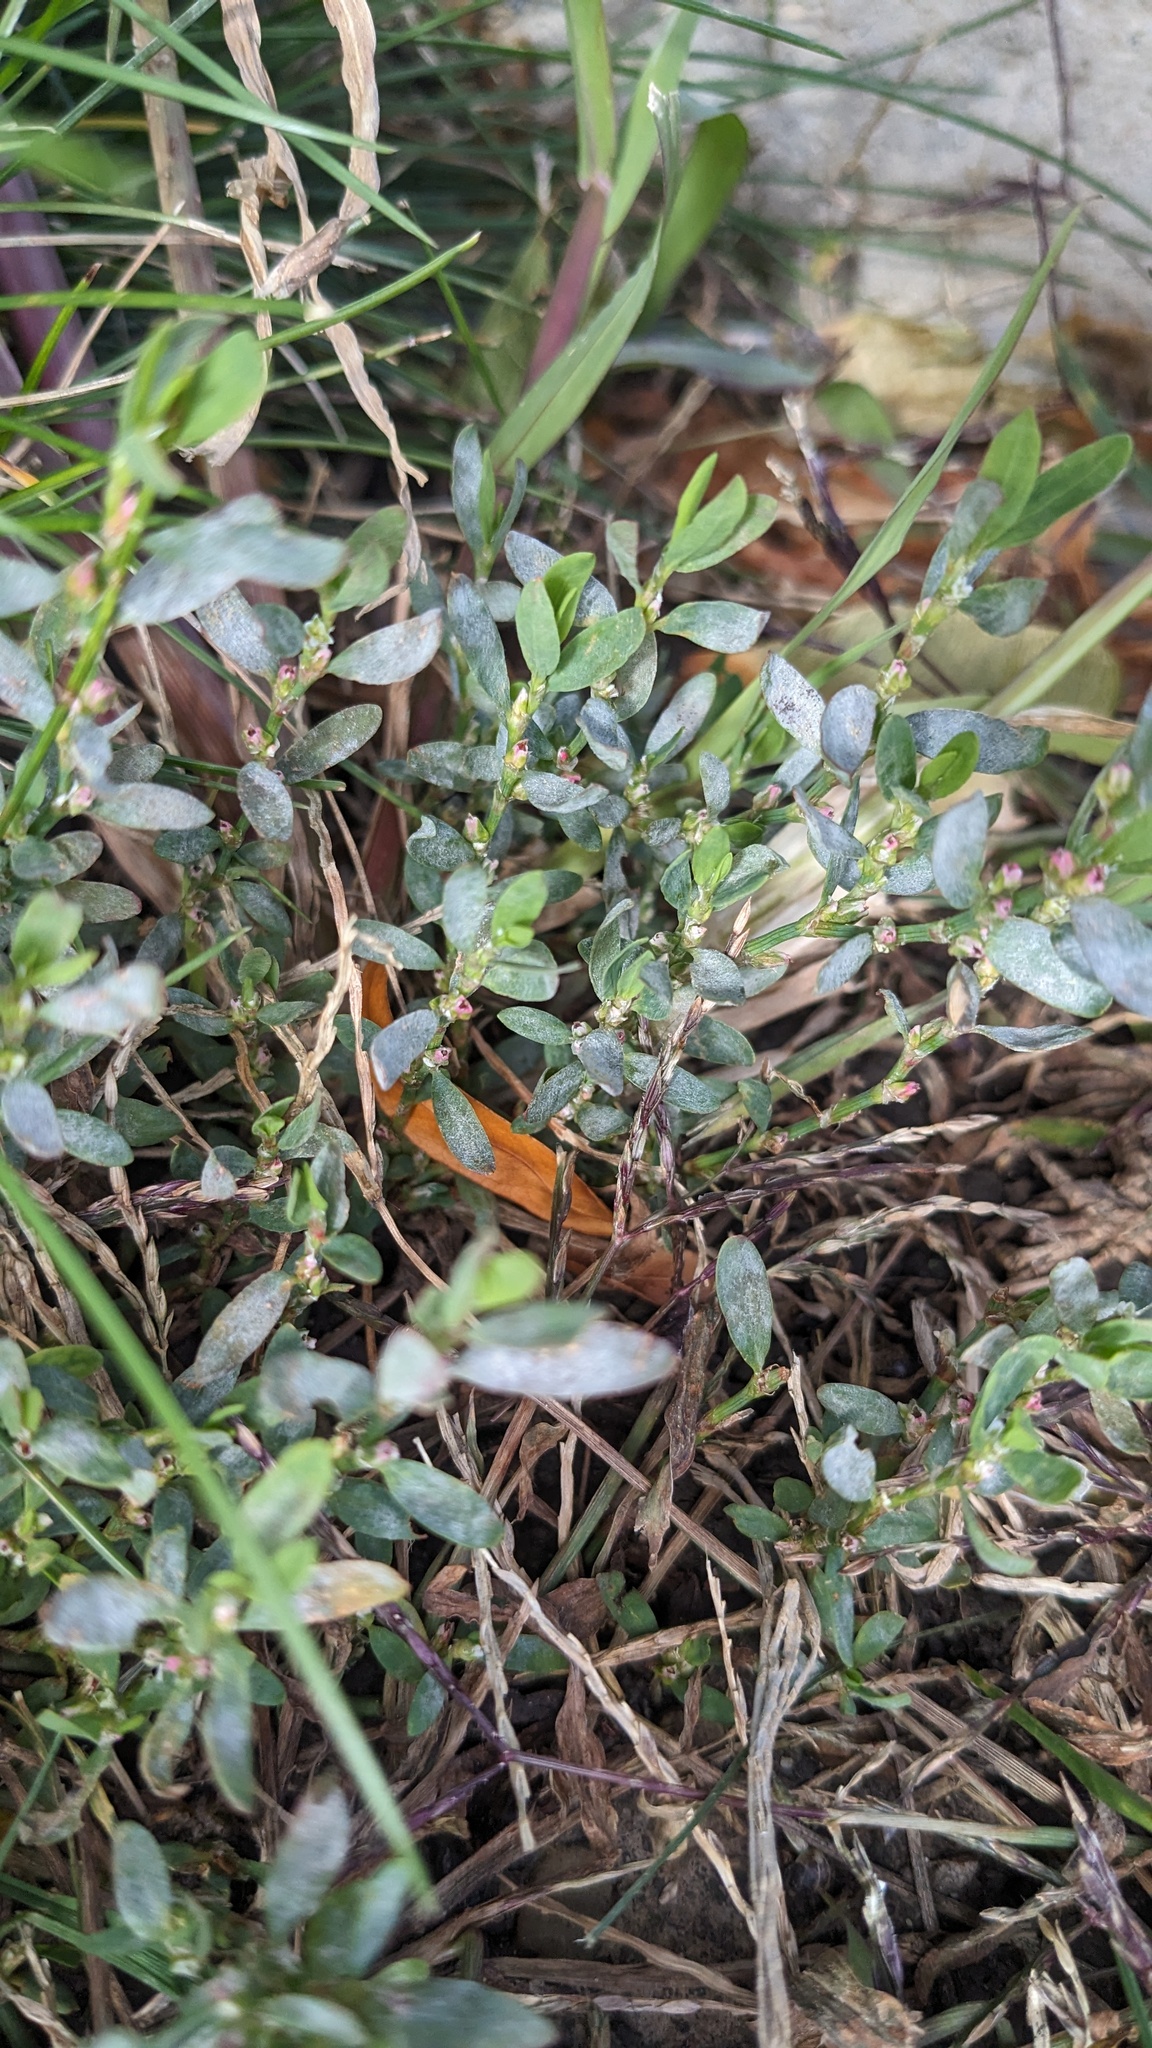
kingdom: Fungi
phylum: Ascomycota
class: Leotiomycetes
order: Helotiales
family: Erysiphaceae
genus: Erysiphe
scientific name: Erysiphe polygoni
